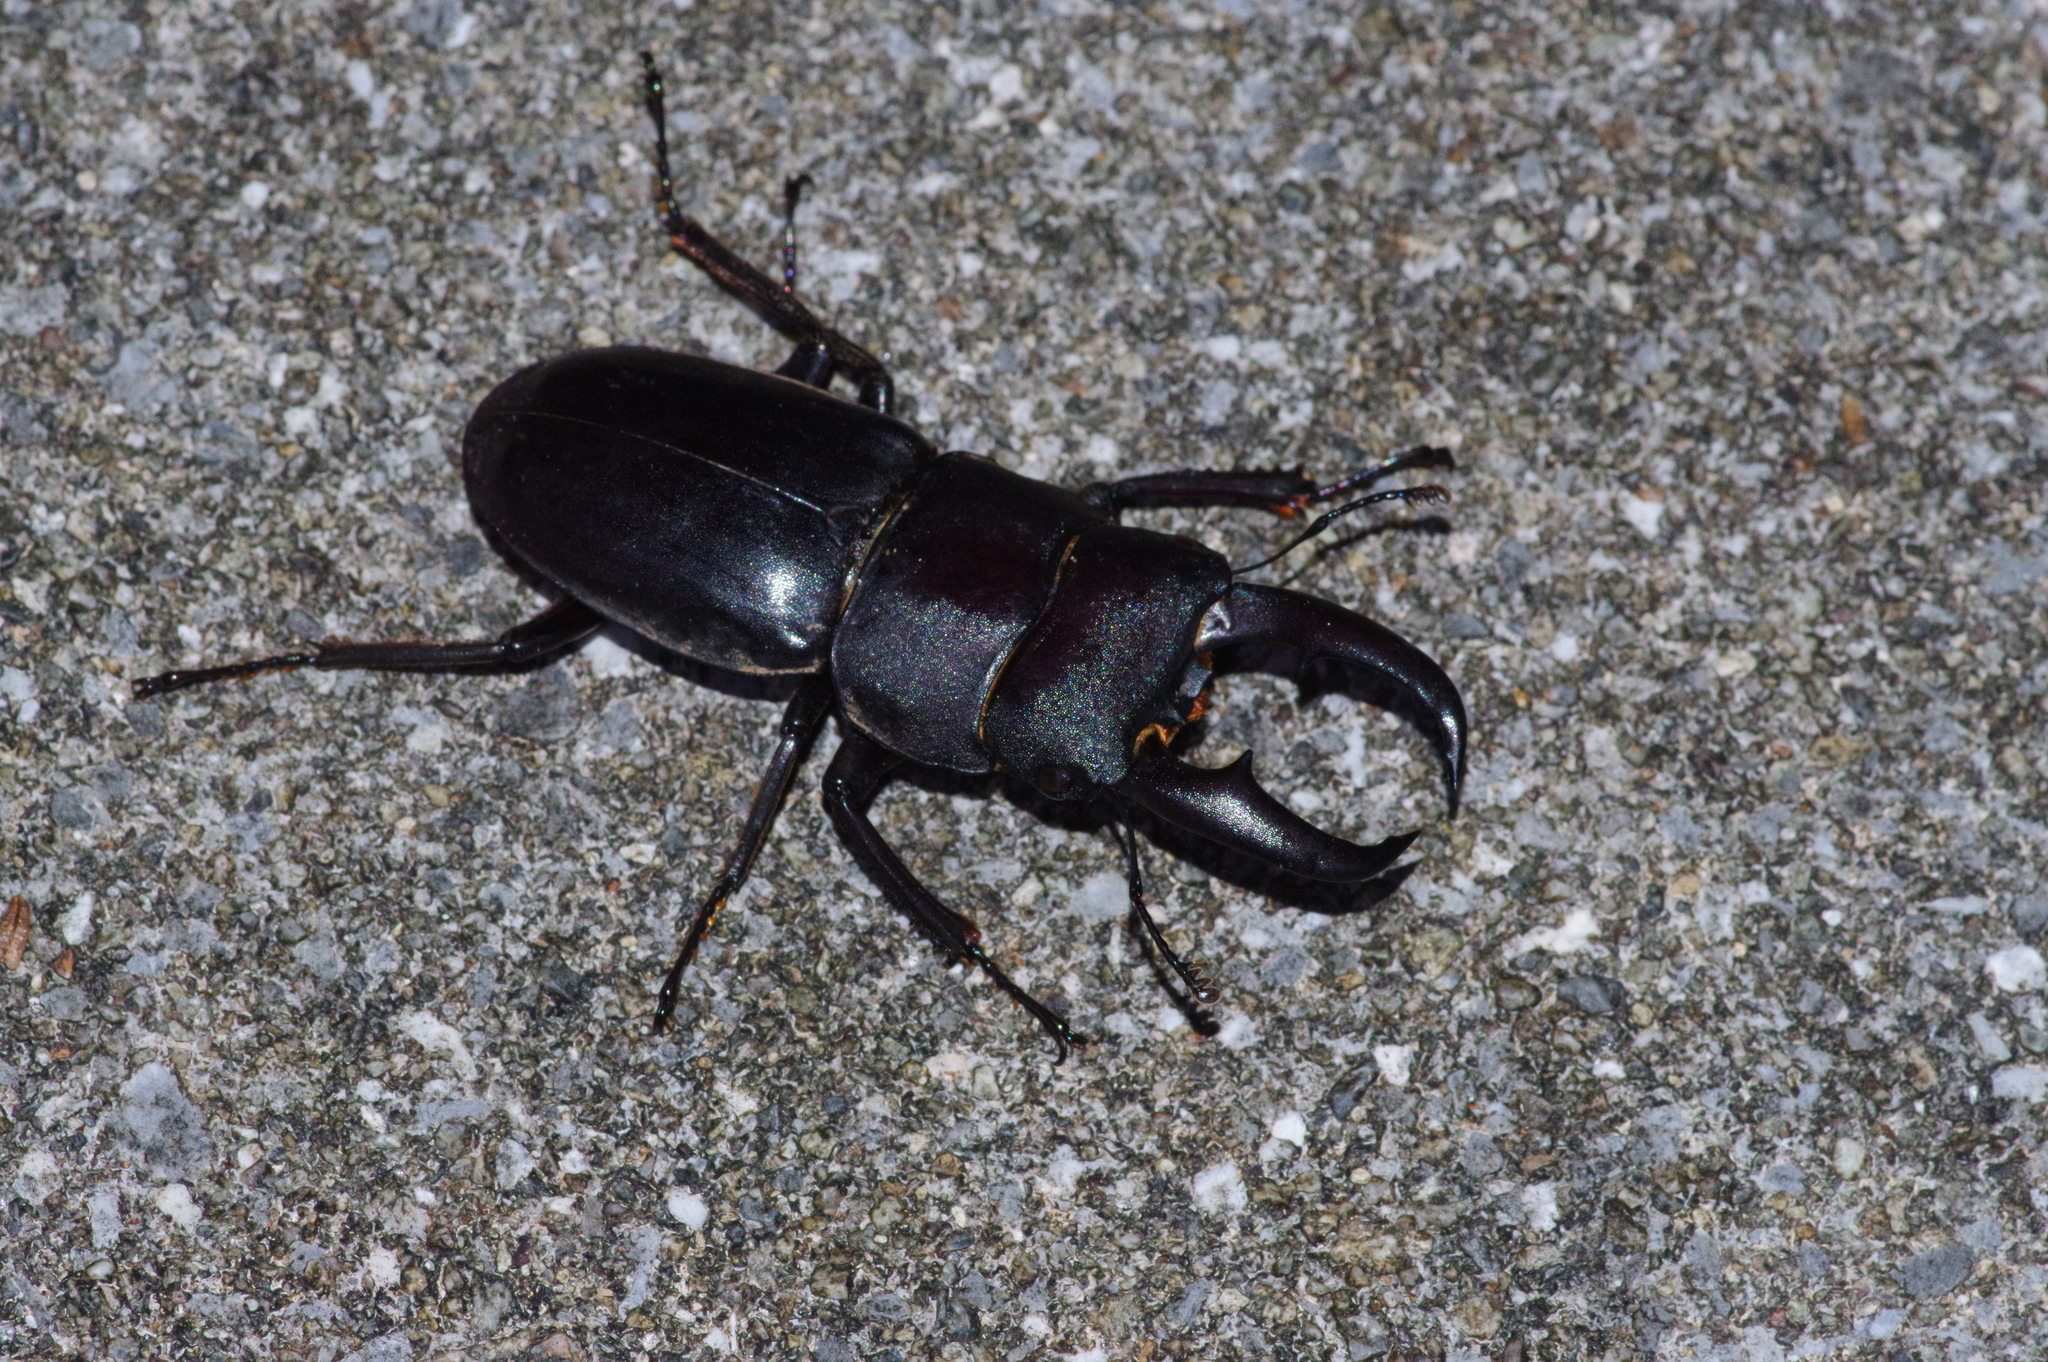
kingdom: Animalia
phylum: Arthropoda
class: Insecta
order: Coleoptera
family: Lucanidae
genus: Serrognathus
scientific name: Serrognathus titanus
